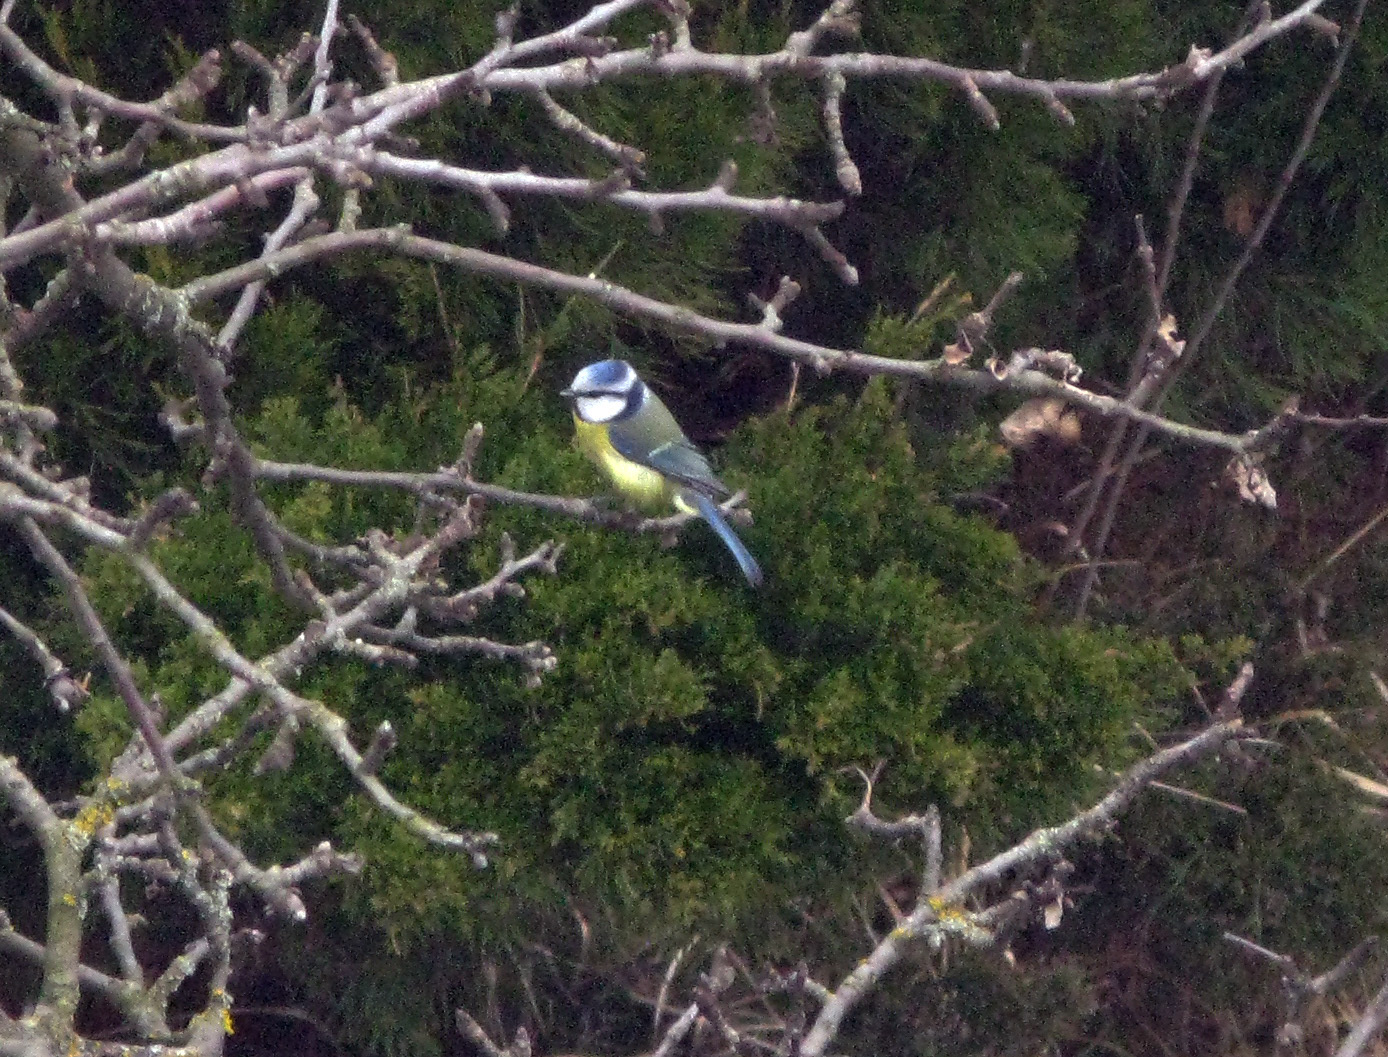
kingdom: Animalia
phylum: Chordata
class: Aves
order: Passeriformes
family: Paridae
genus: Cyanistes
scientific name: Cyanistes caeruleus
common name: Eurasian blue tit
